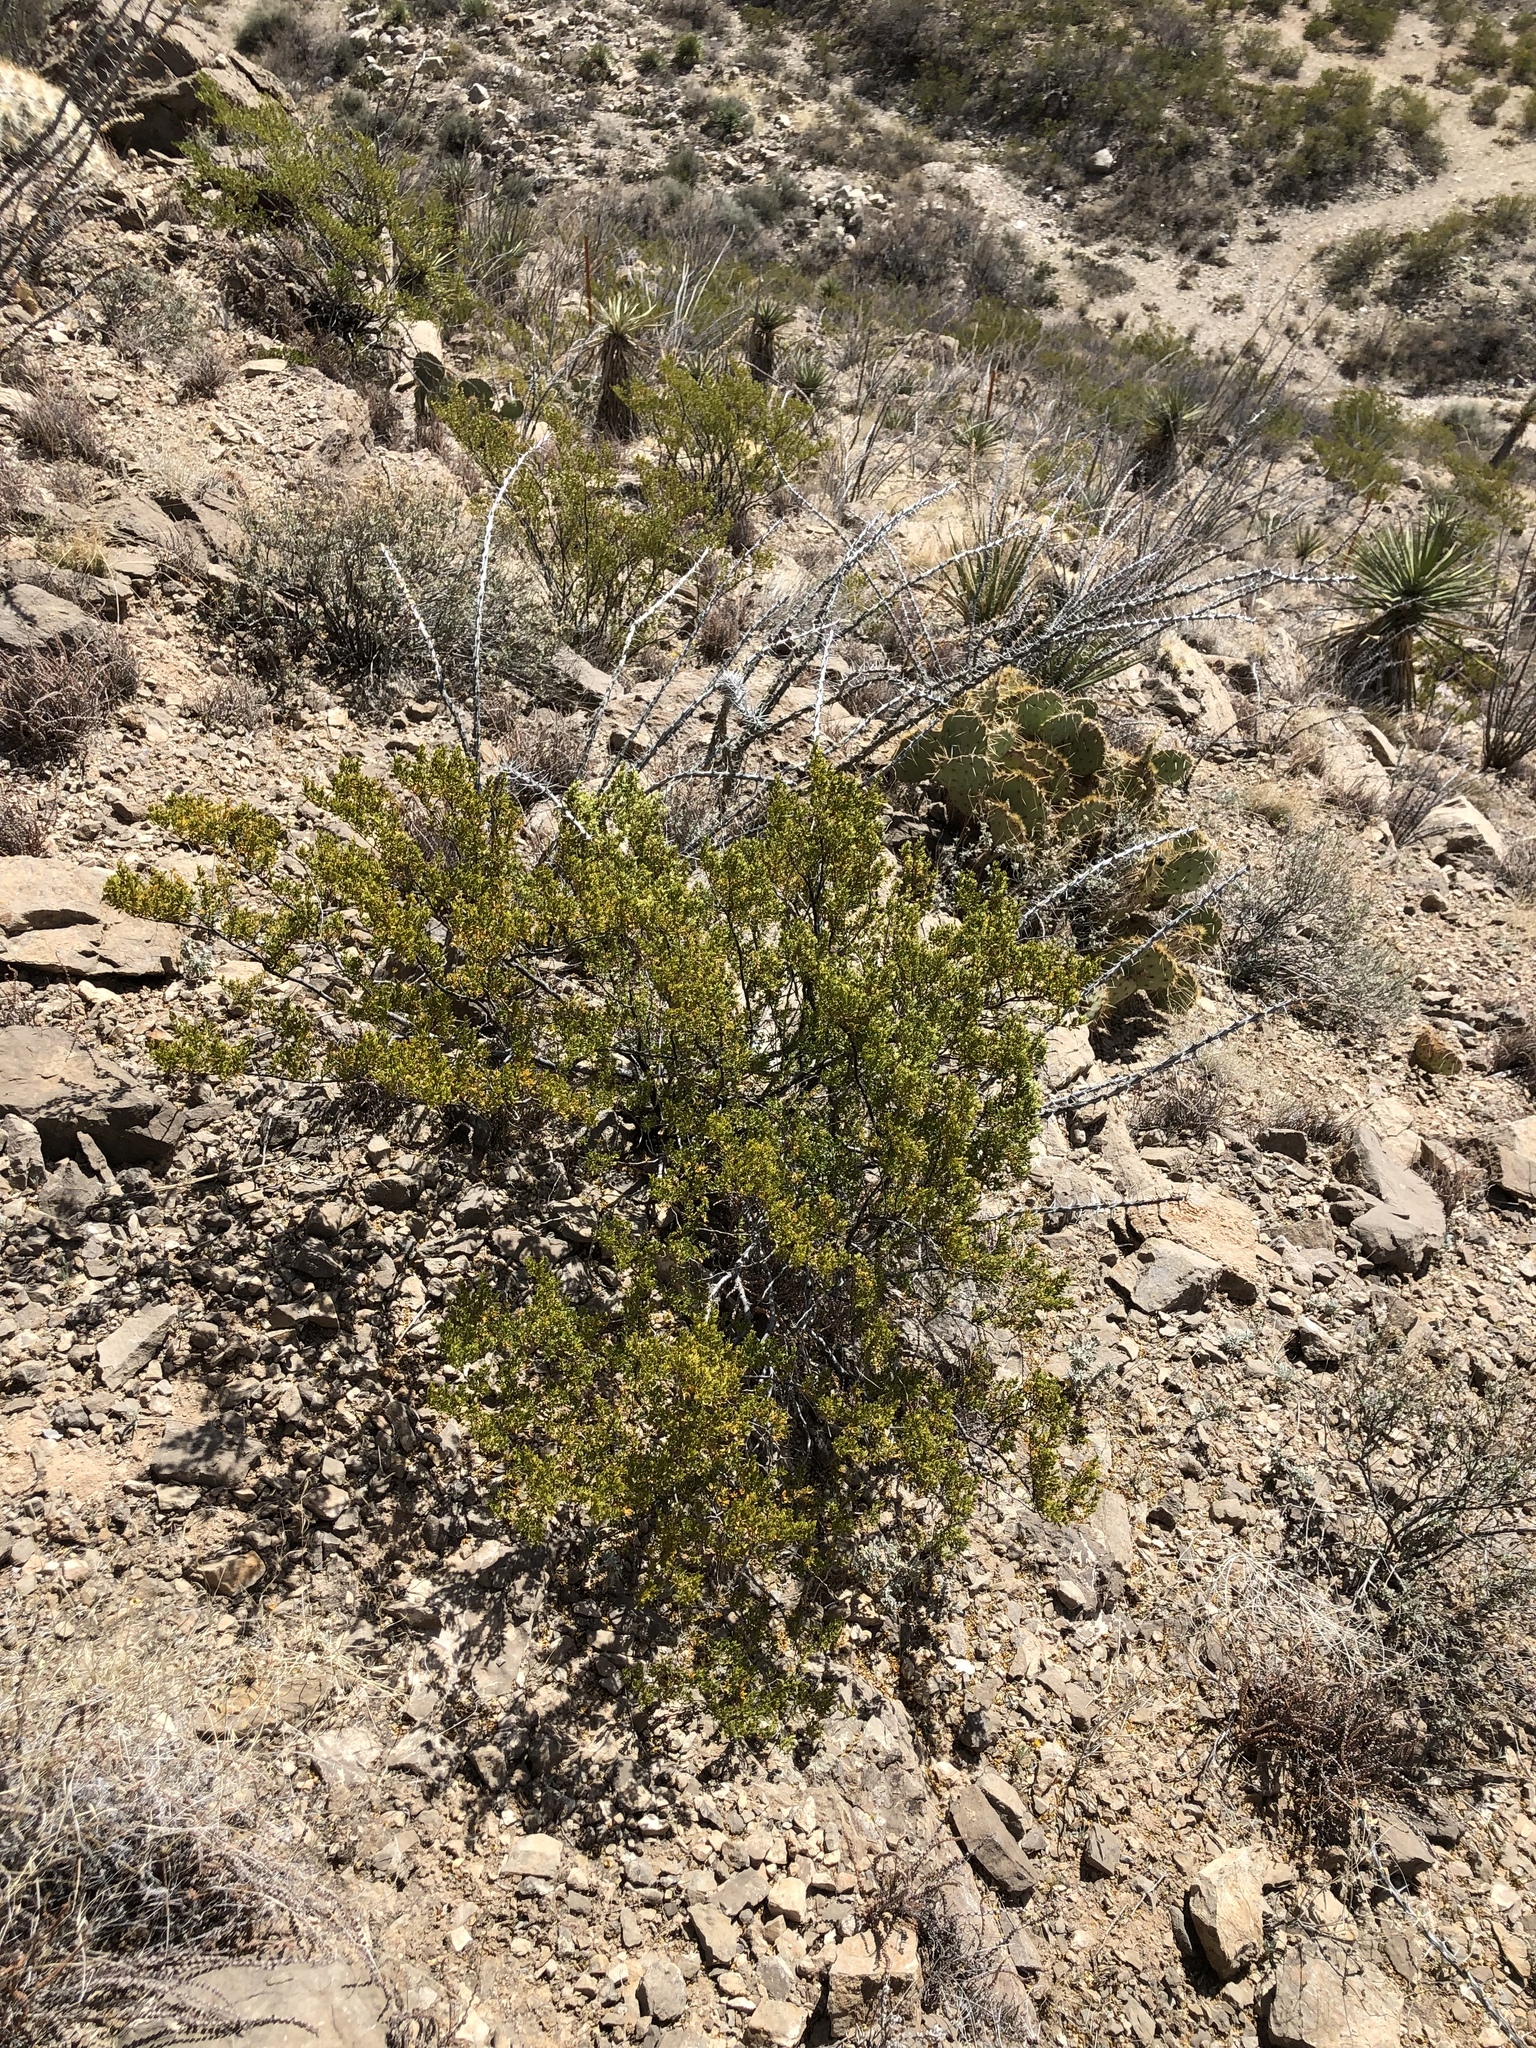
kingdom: Plantae
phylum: Tracheophyta
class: Magnoliopsida
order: Zygophyllales
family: Zygophyllaceae
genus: Larrea
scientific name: Larrea tridentata
